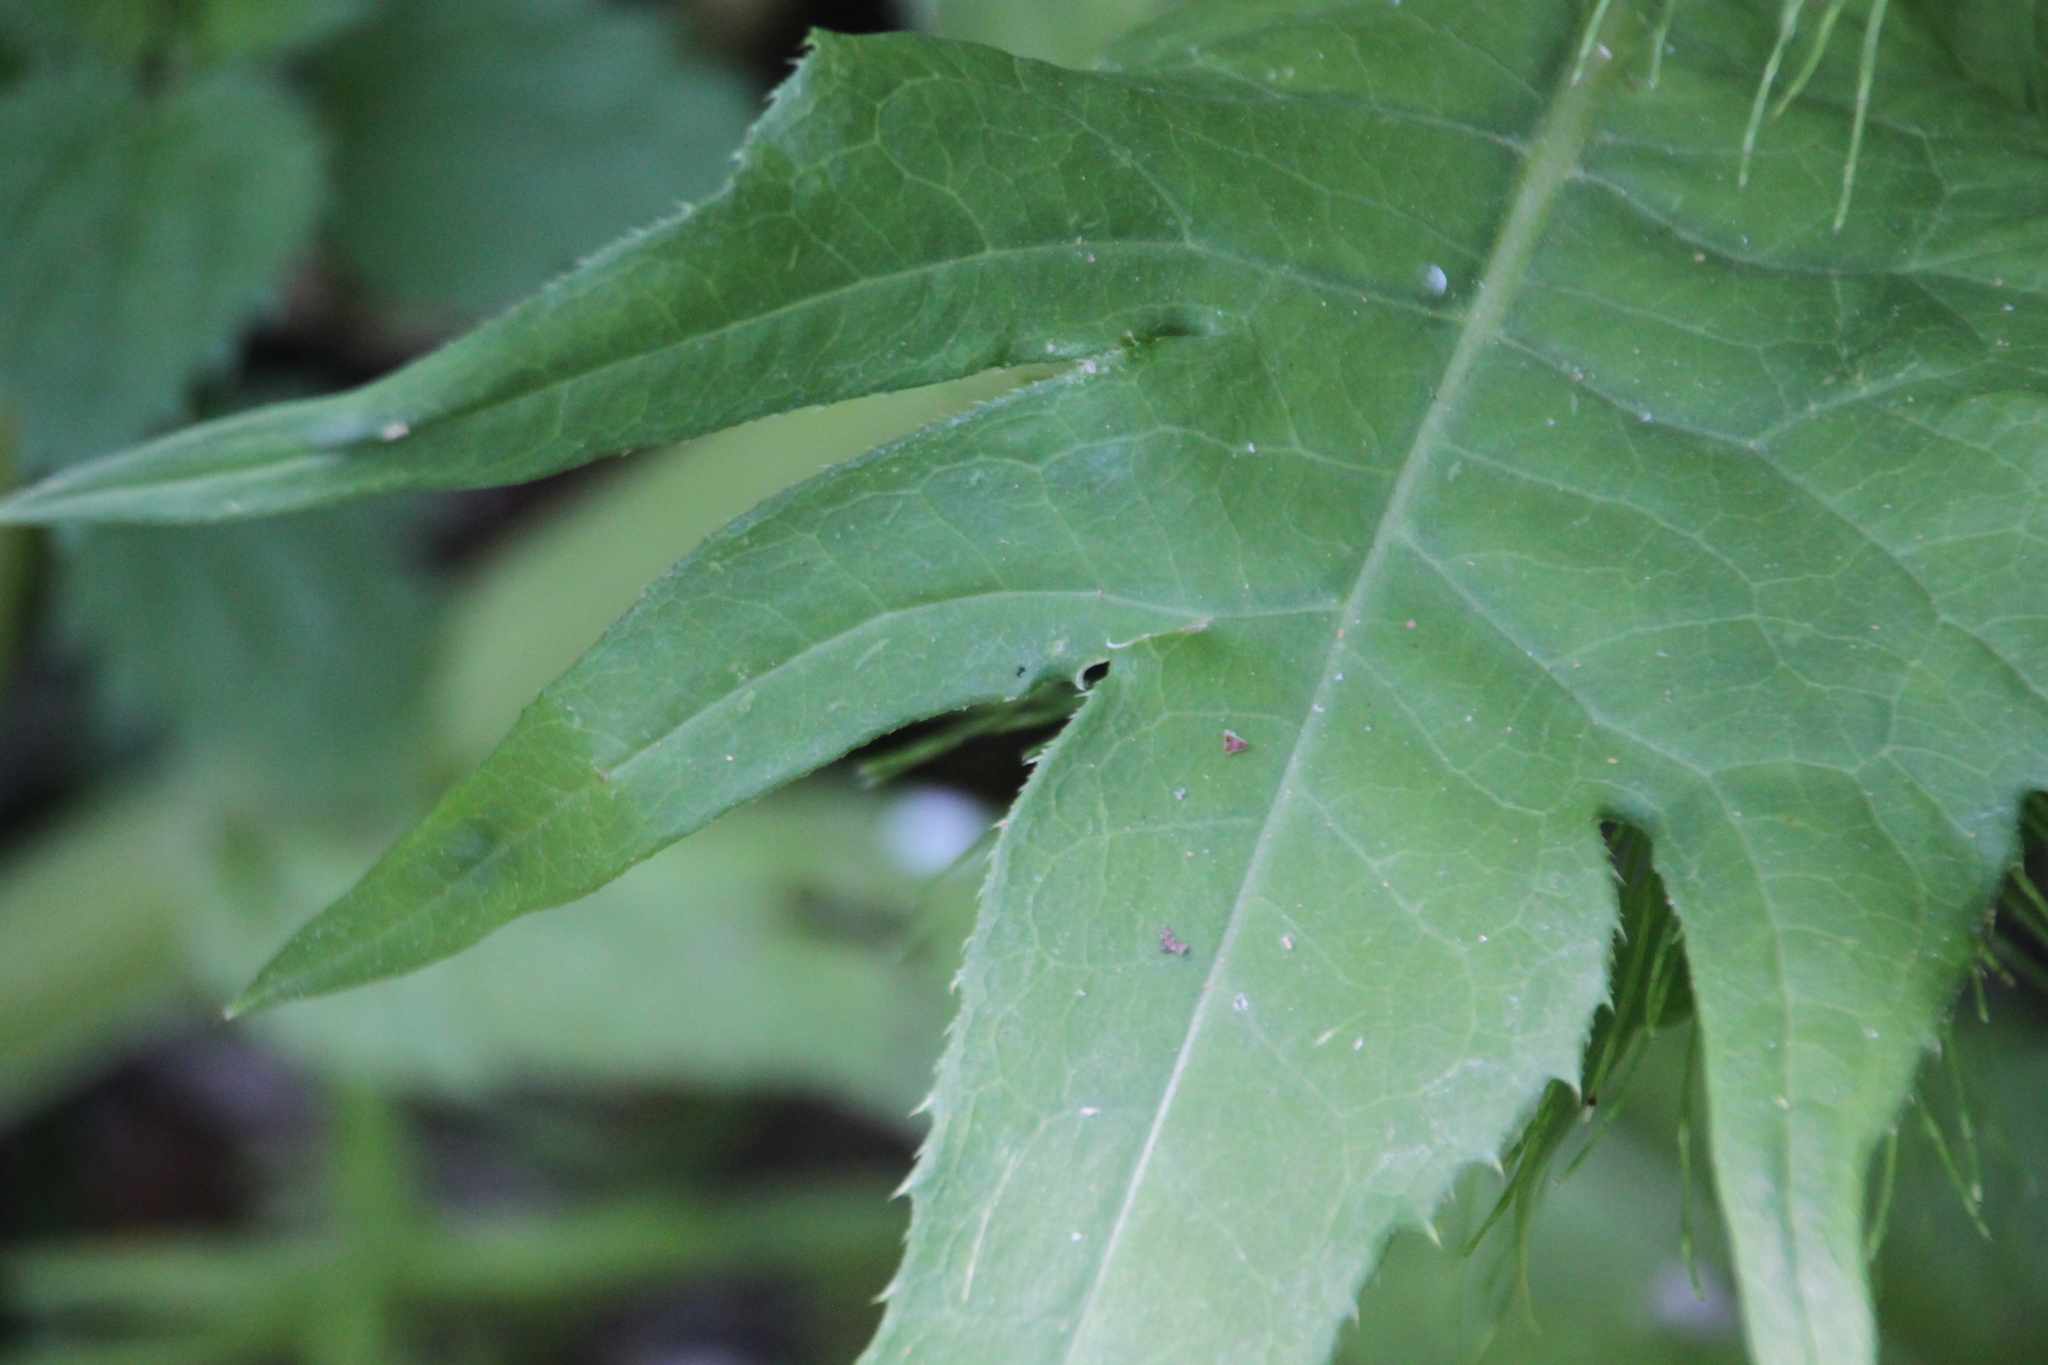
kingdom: Plantae
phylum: Tracheophyta
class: Magnoliopsida
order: Asterales
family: Asteraceae
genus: Cirsium
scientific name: Cirsium heterophyllum
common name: Melancholy thistle
